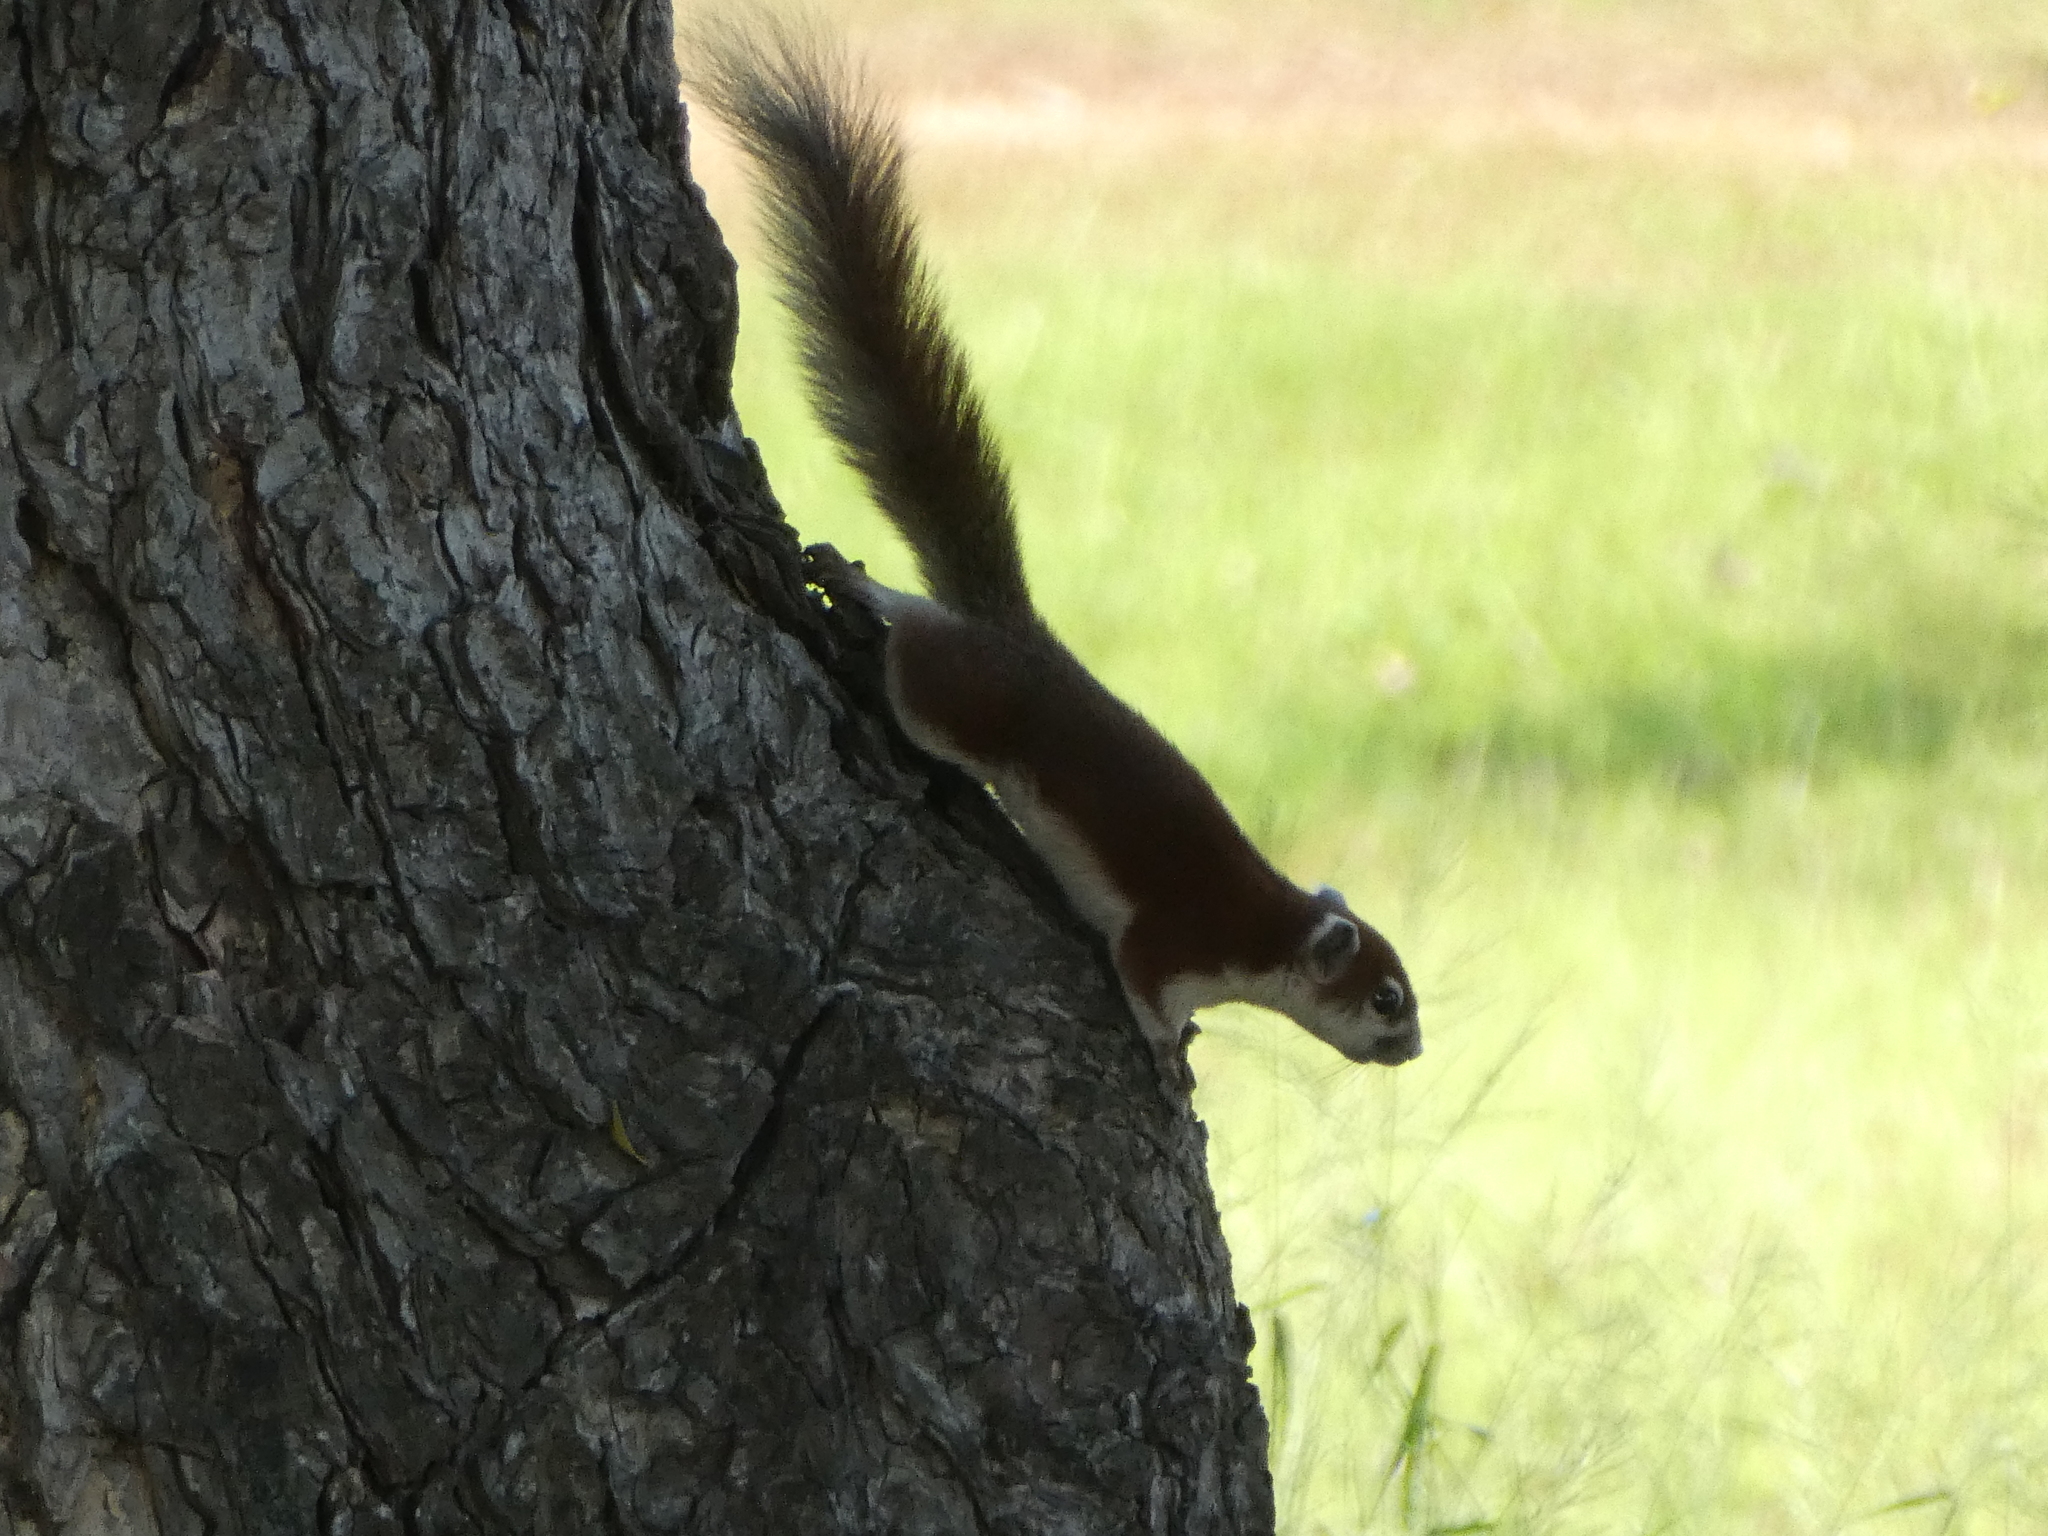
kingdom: Animalia
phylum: Chordata
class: Mammalia
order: Rodentia
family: Sciuridae
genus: Callosciurus
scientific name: Callosciurus finlaysonii
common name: Finlayson's squirrel
